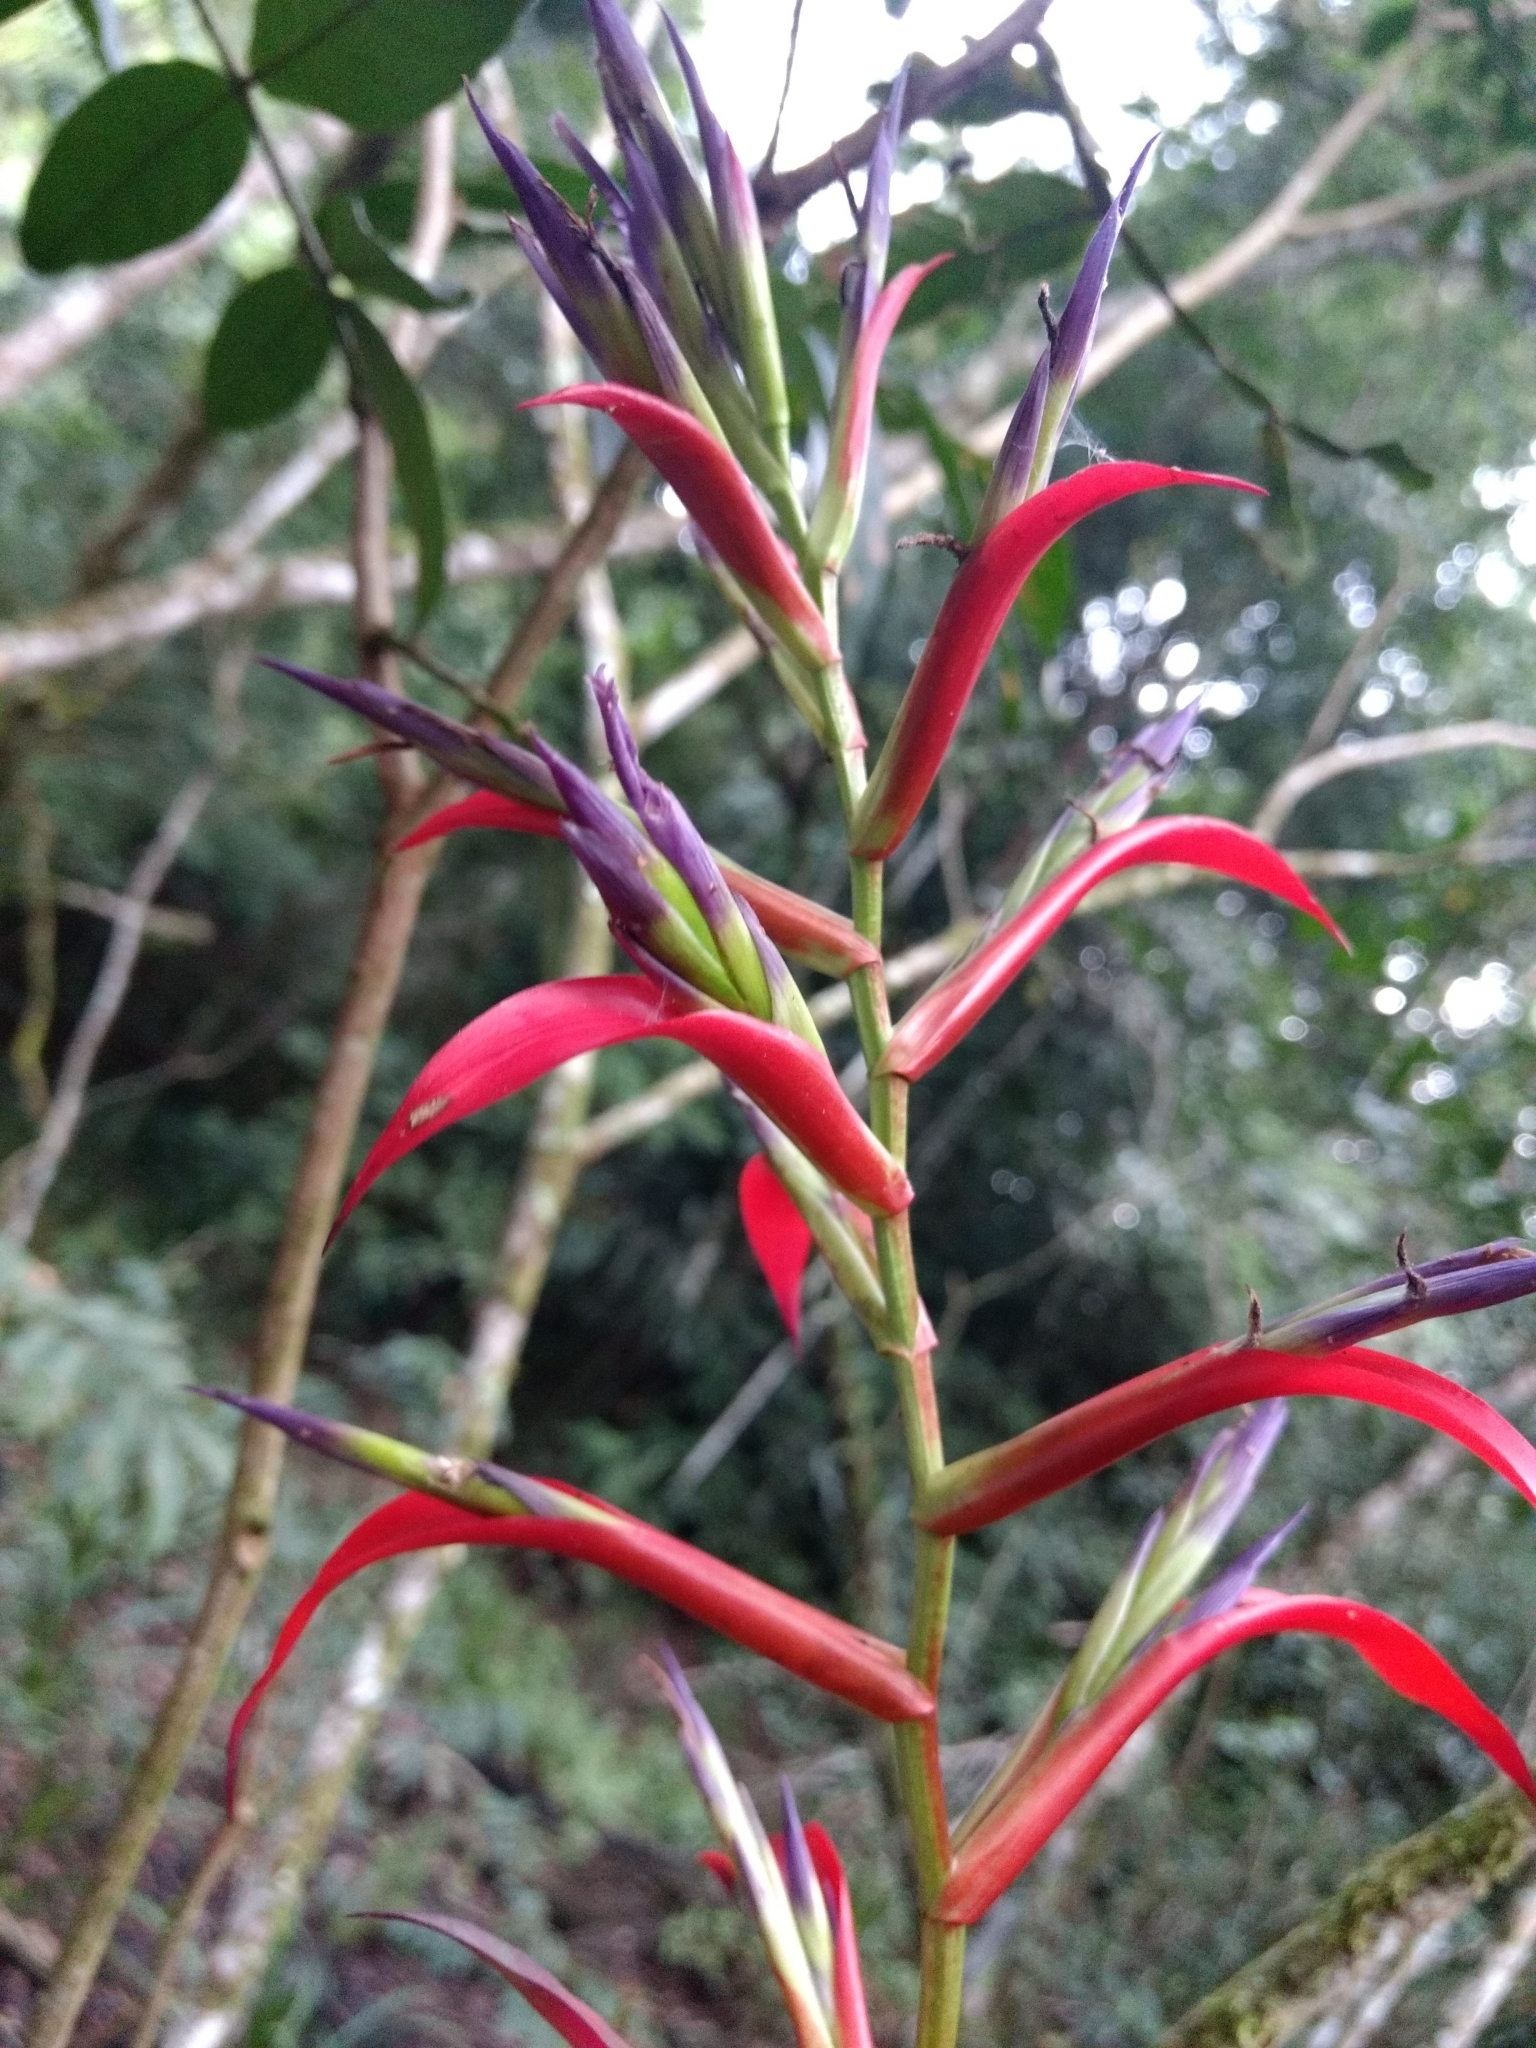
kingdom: Plantae
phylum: Tracheophyta
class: Liliopsida
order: Poales
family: Bromeliaceae
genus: Tillandsia
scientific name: Tillandsia leiboldiana
